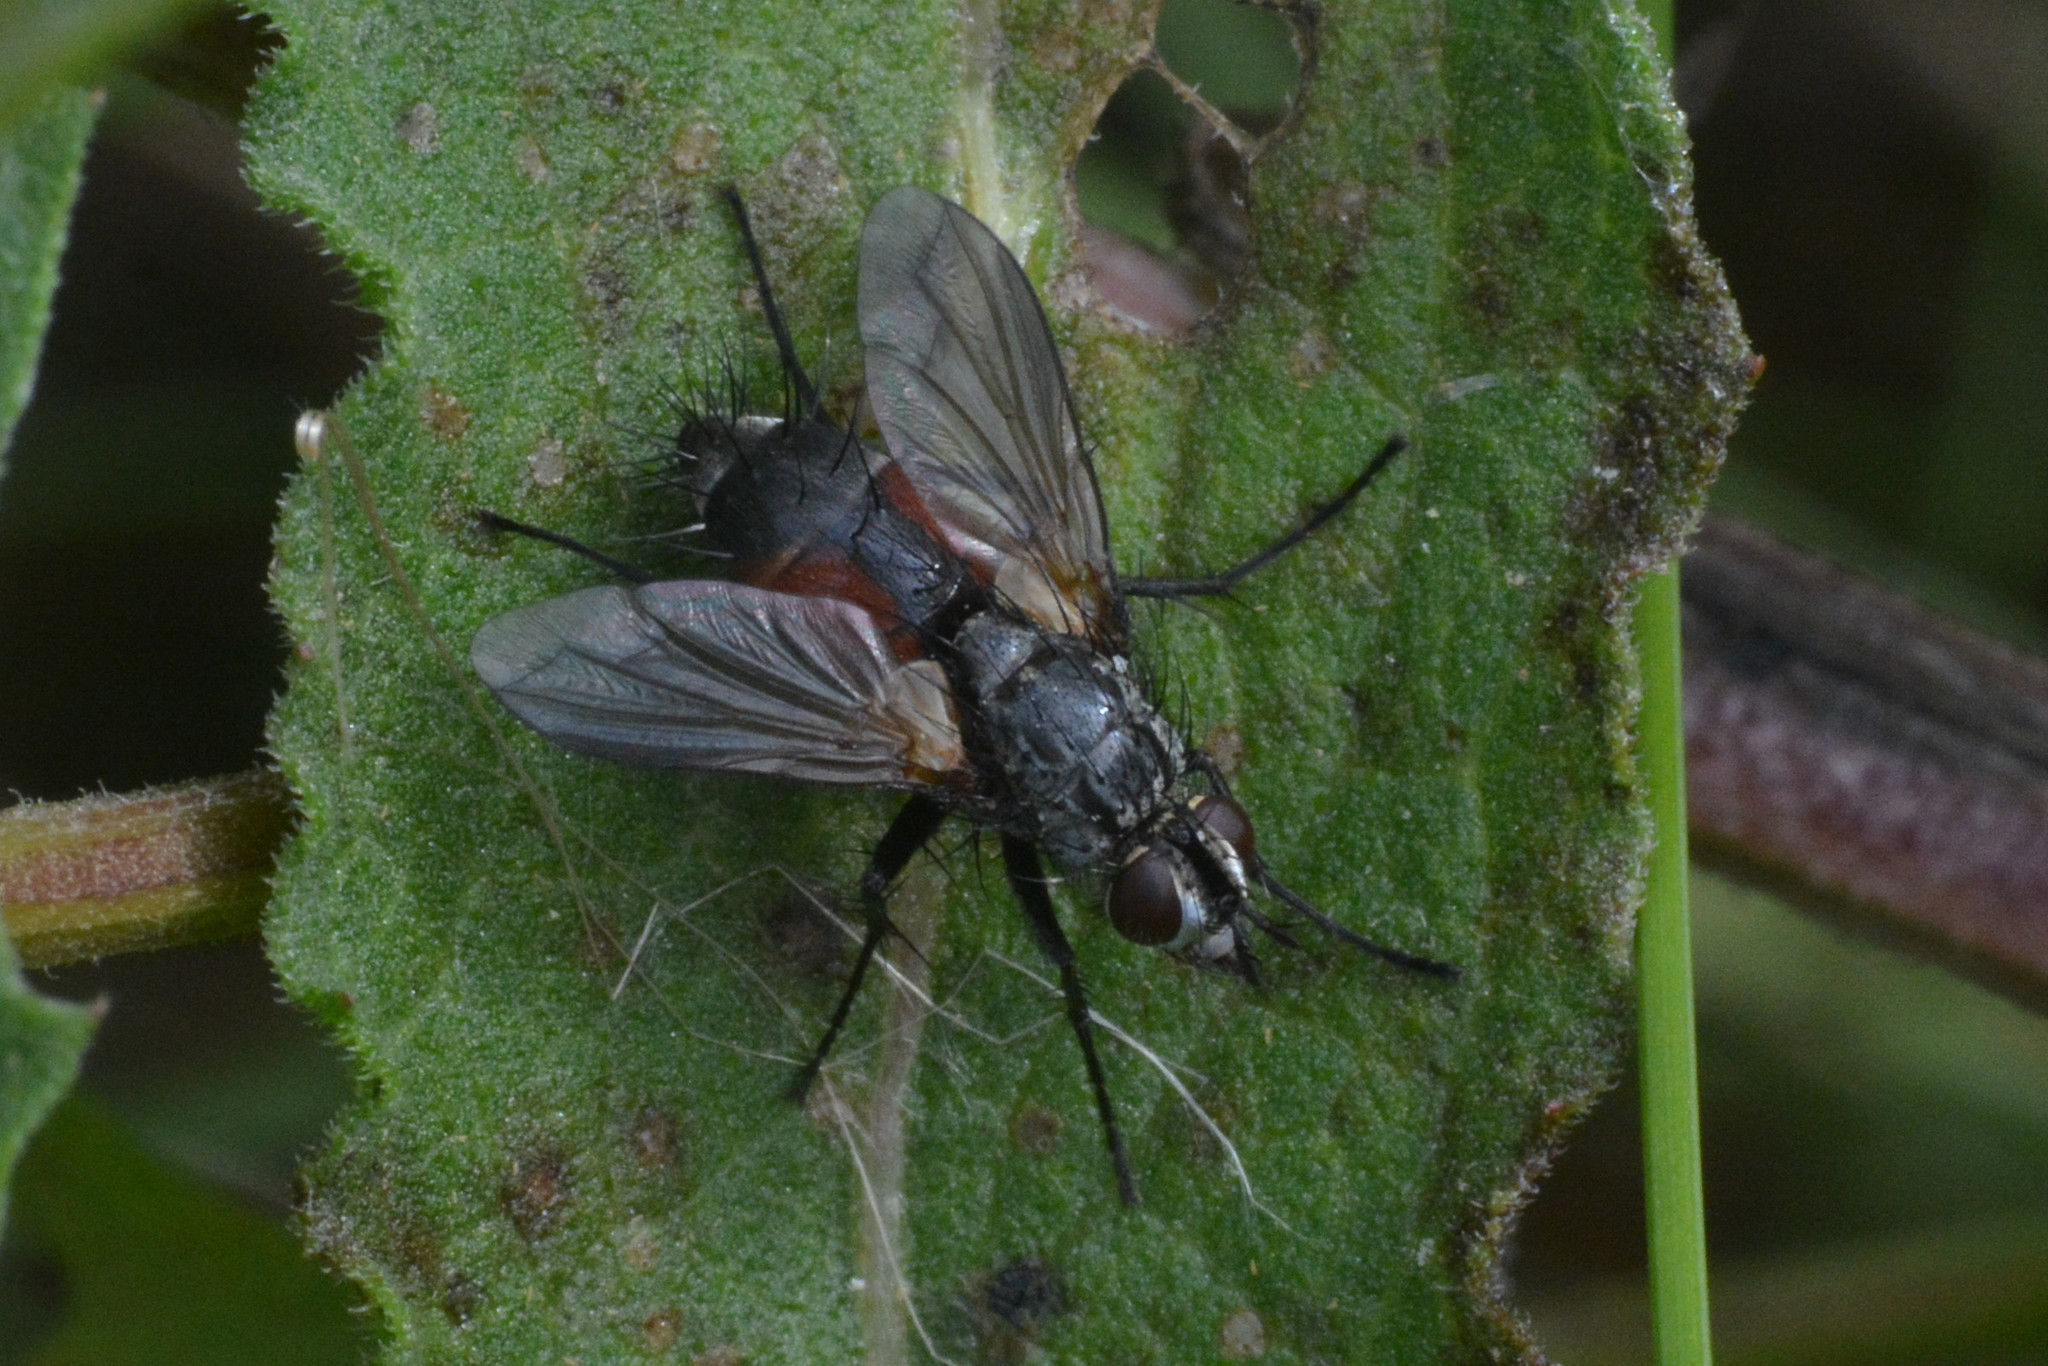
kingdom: Animalia
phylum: Arthropoda
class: Insecta
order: Diptera
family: Tachinidae
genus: Eriothrix
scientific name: Eriothrix rufomaculatus
